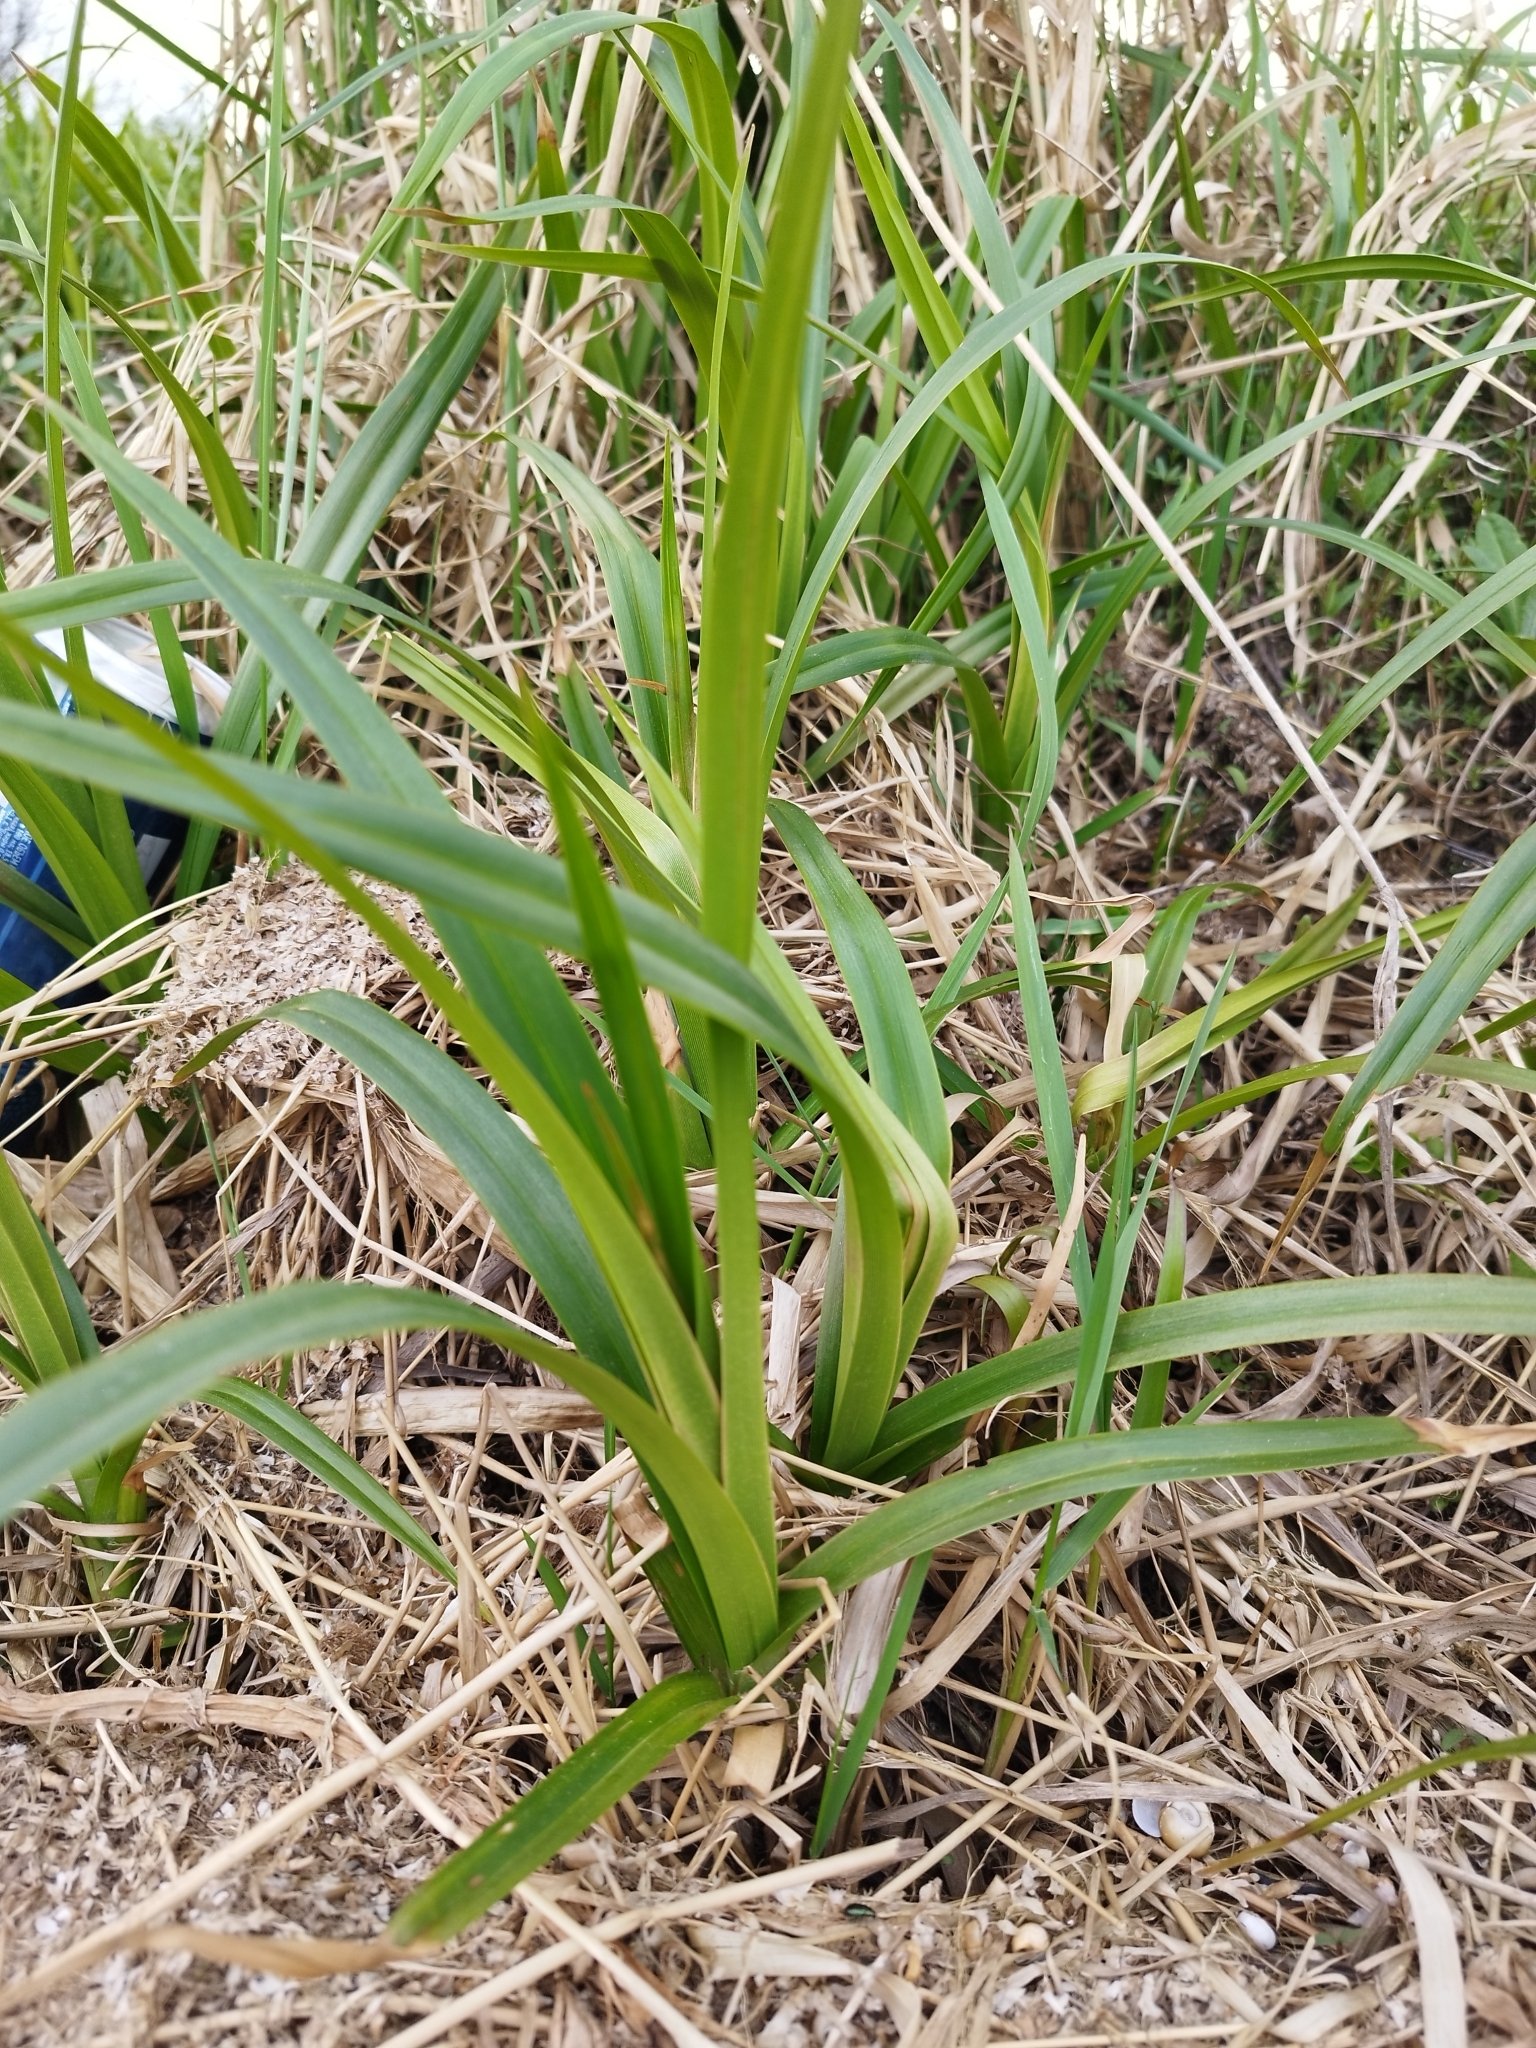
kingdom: Plantae
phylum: Tracheophyta
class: Liliopsida
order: Poales
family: Cyperaceae
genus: Scirpus
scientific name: Scirpus sylvaticus
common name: Wood club-rush
